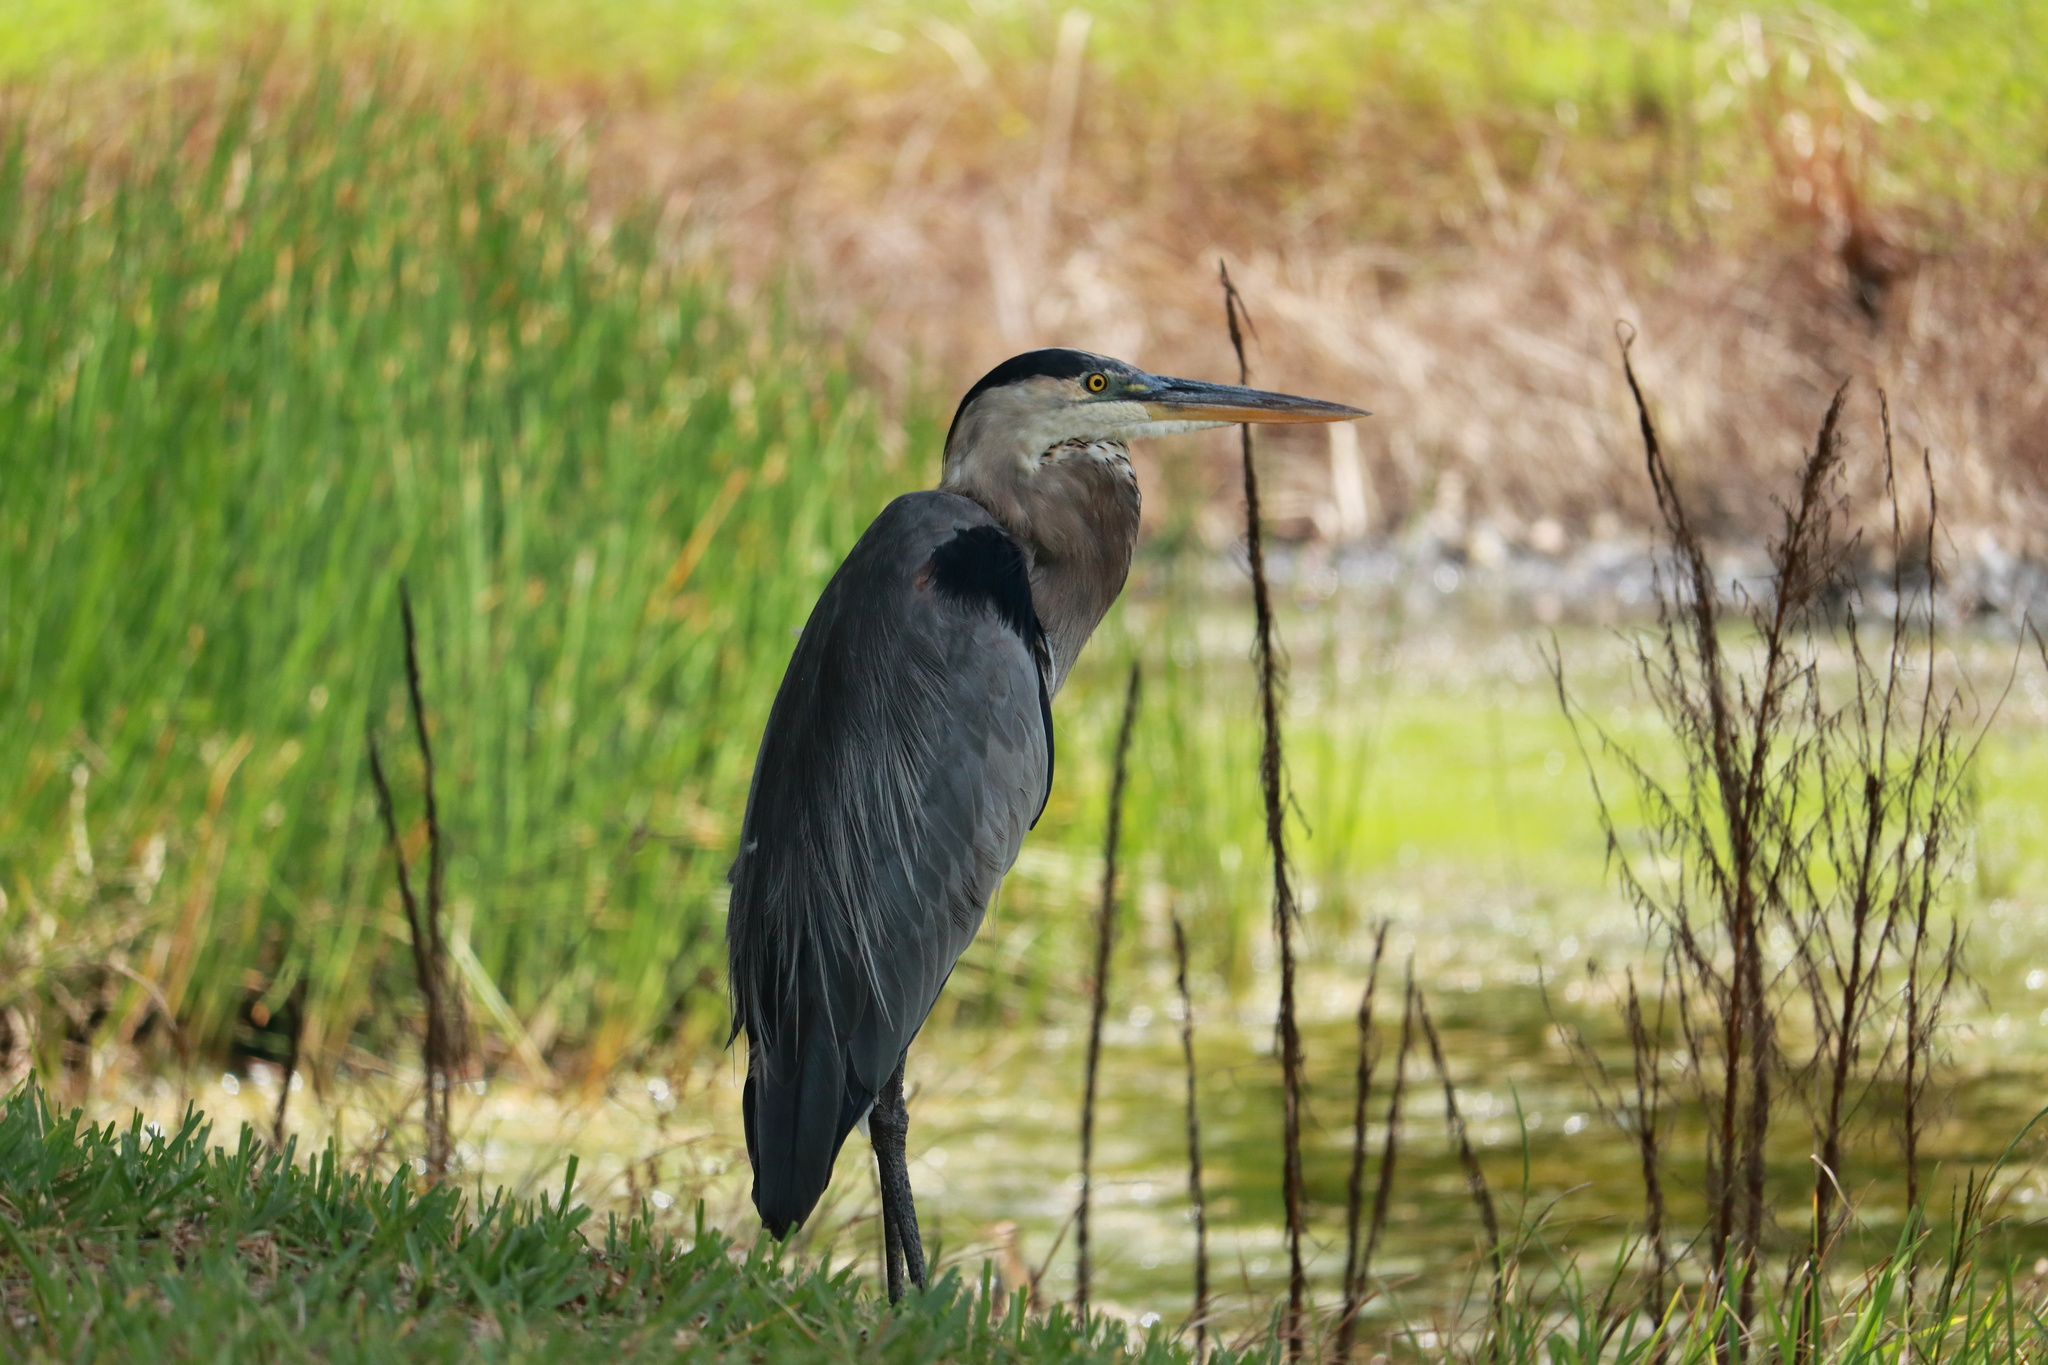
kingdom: Animalia
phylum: Chordata
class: Aves
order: Pelecaniformes
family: Ardeidae
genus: Ardea
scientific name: Ardea herodias
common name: Great blue heron
